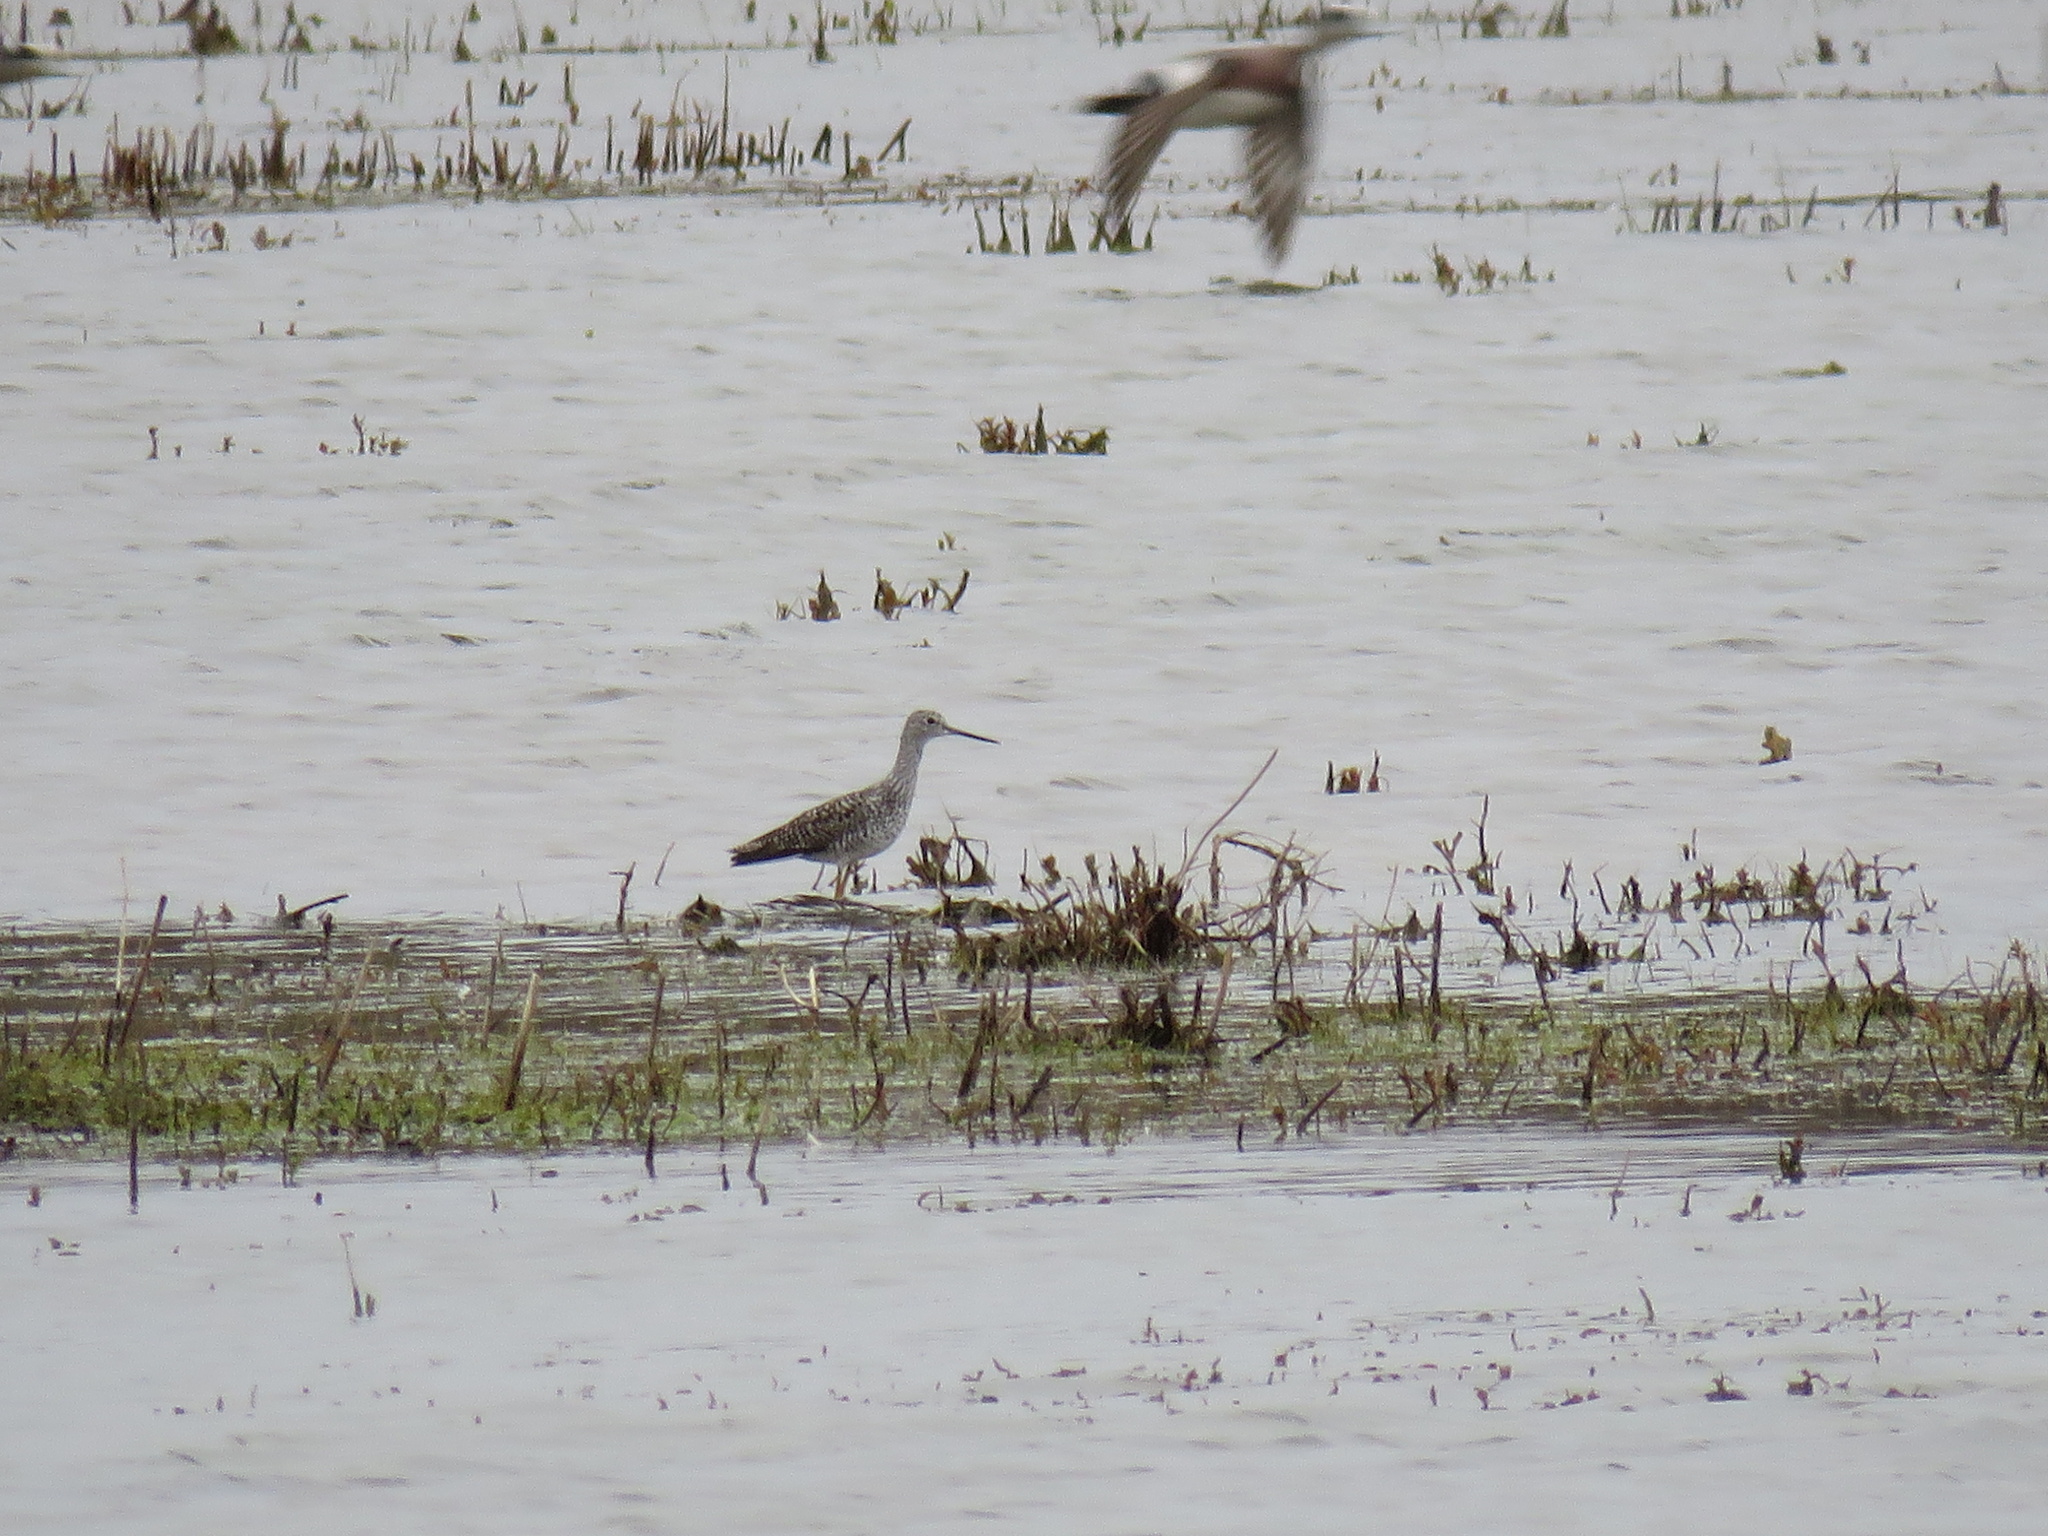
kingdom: Animalia
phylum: Chordata
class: Aves
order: Charadriiformes
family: Scolopacidae
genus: Tringa
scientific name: Tringa melanoleuca
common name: Greater yellowlegs
